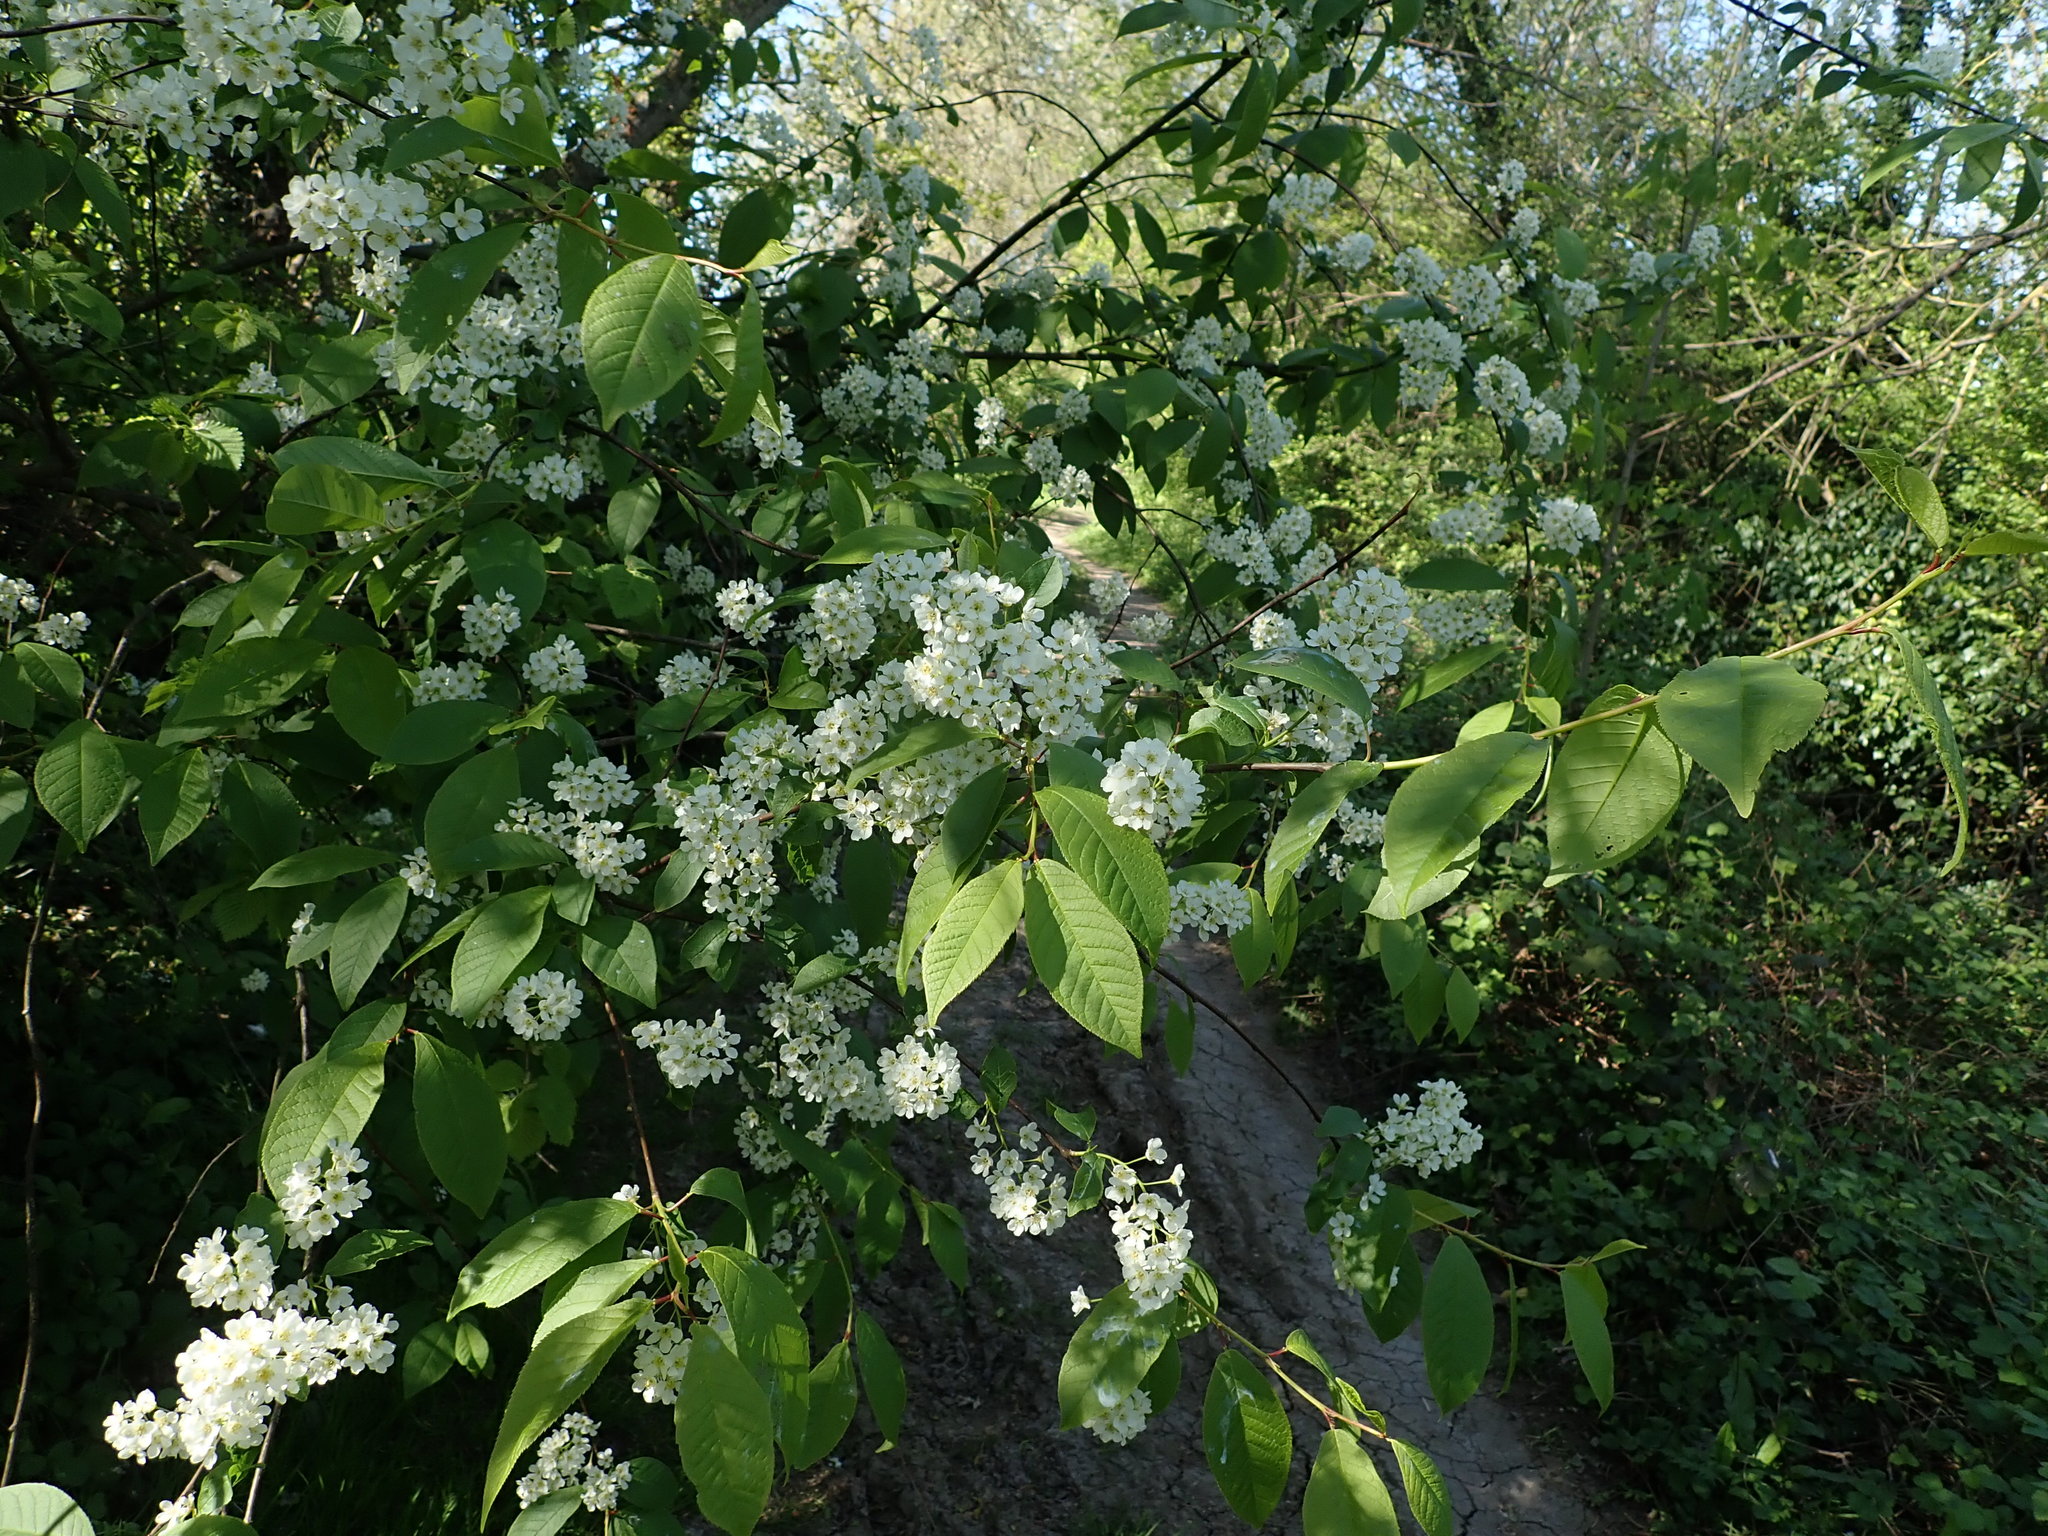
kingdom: Plantae
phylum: Tracheophyta
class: Magnoliopsida
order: Rosales
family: Rosaceae
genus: Prunus
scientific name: Prunus padus
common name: Bird cherry
